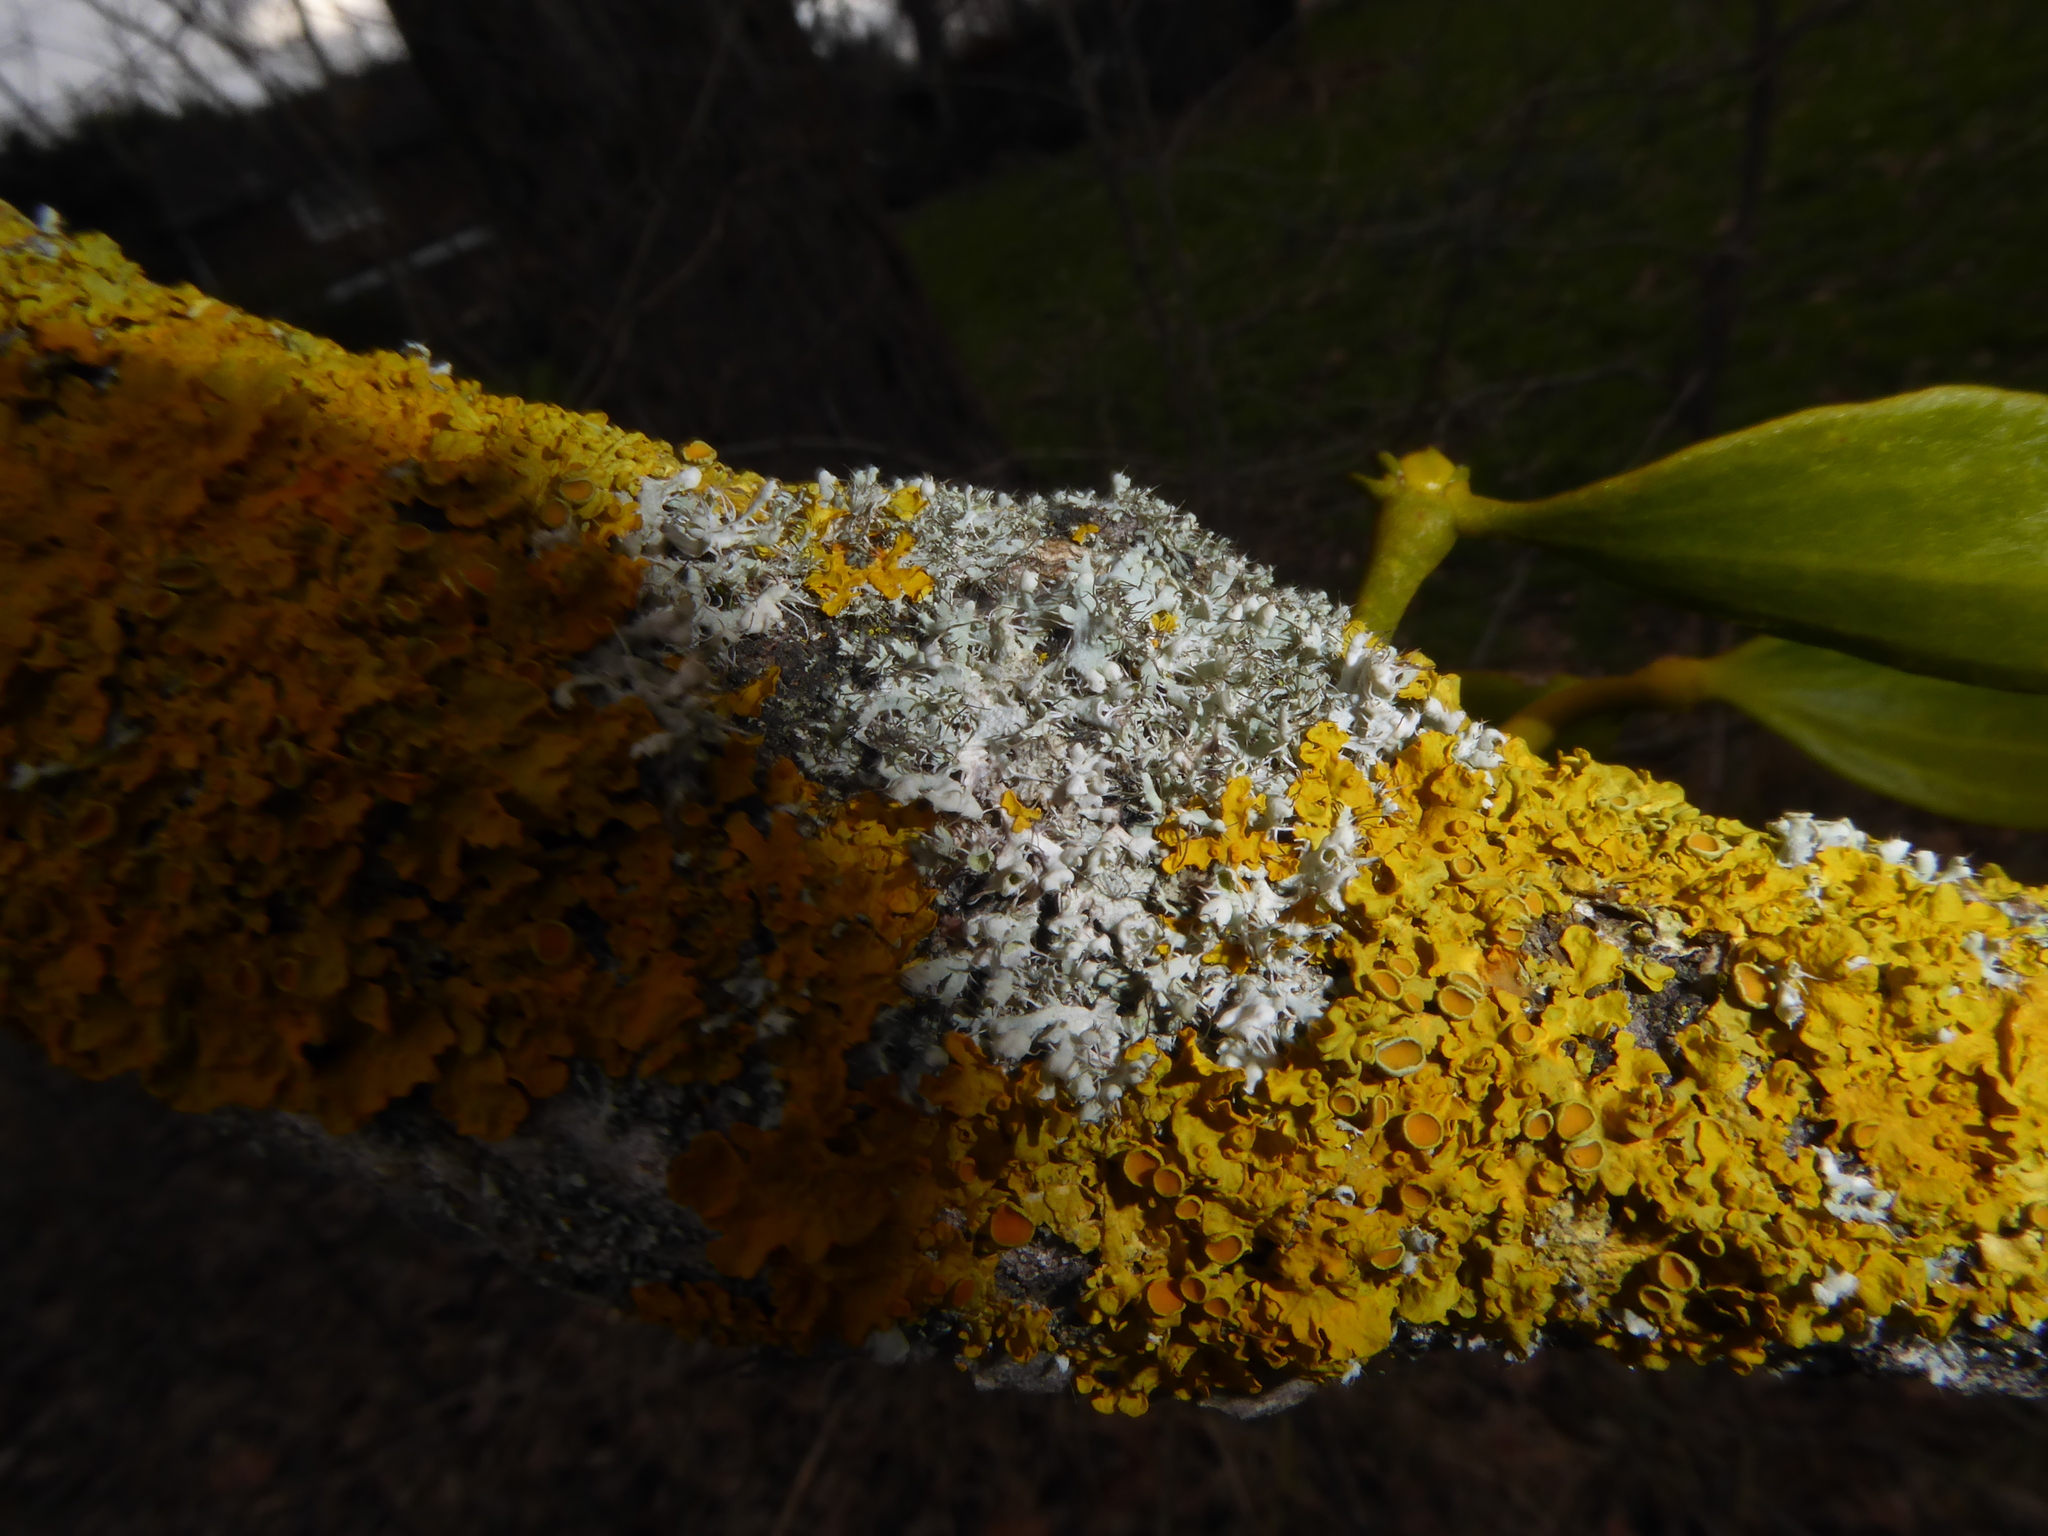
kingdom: Fungi
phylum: Ascomycota
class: Lecanoromycetes
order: Caliciales
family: Physciaceae
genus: Physcia
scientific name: Physcia adscendens
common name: Hooded rosette lichen
